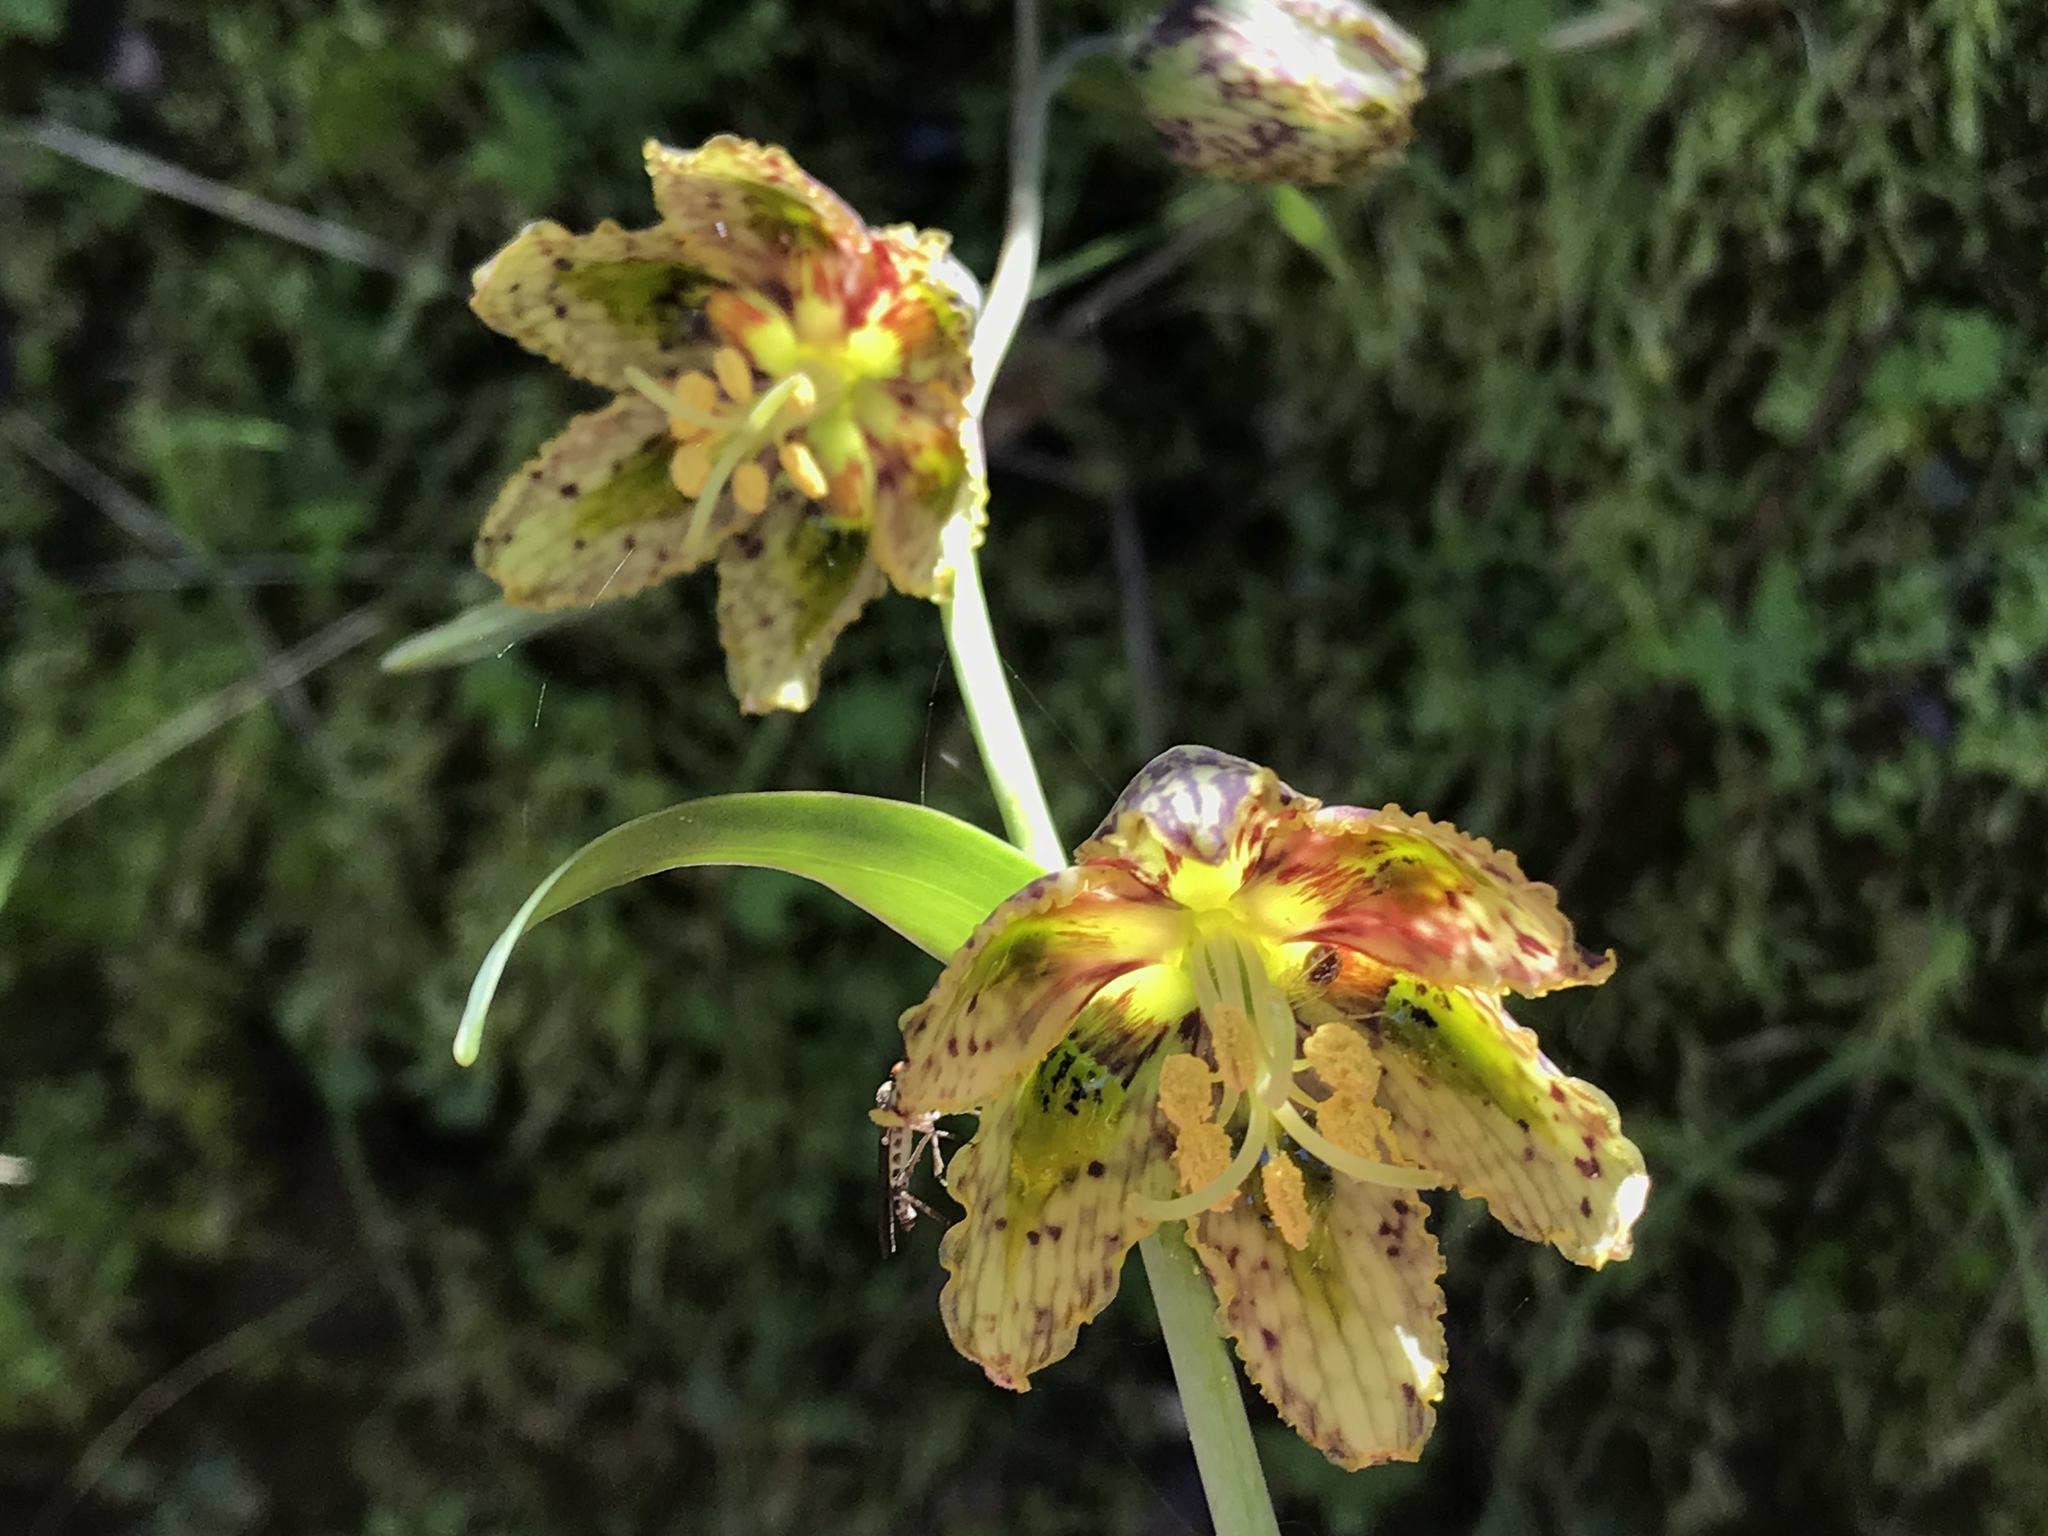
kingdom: Plantae
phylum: Tracheophyta
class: Liliopsida
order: Liliales
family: Liliaceae
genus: Fritillaria
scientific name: Fritillaria affinis
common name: Ojai fritillary
